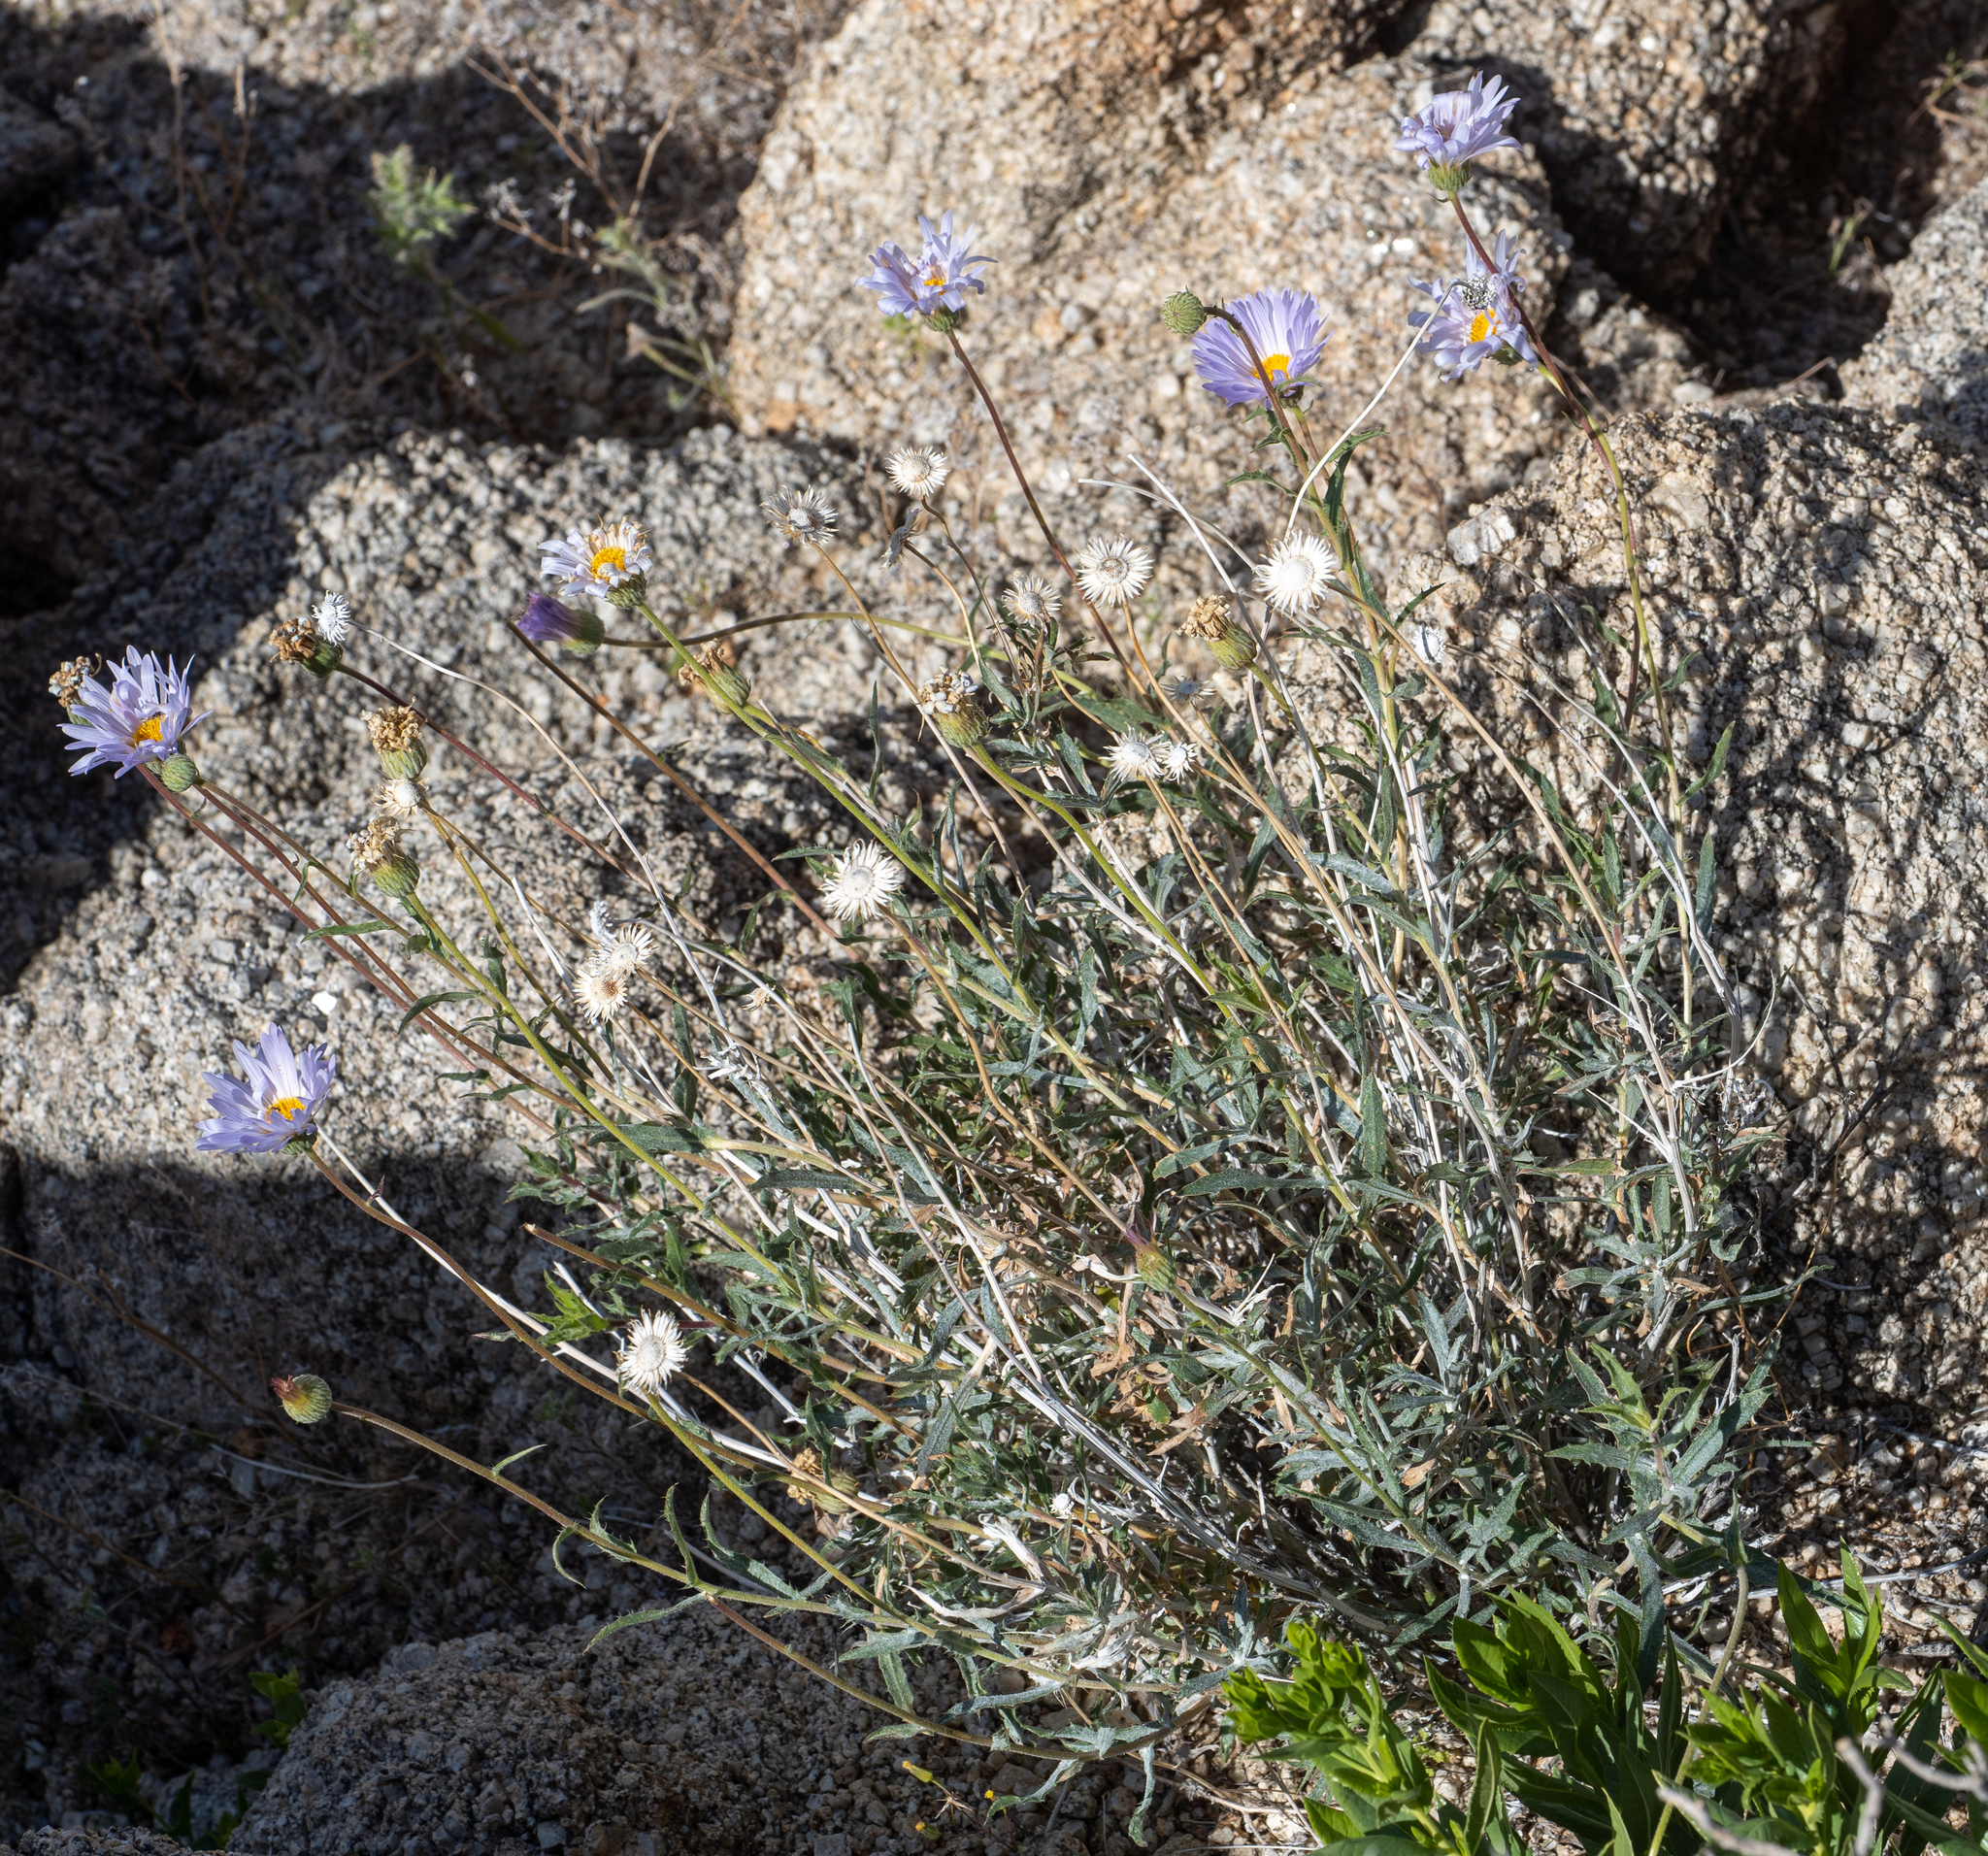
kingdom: Plantae
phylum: Tracheophyta
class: Magnoliopsida
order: Asterales
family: Asteraceae
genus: Xylorhiza
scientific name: Xylorhiza tortifolia
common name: Hurt-leaf woody-aster
